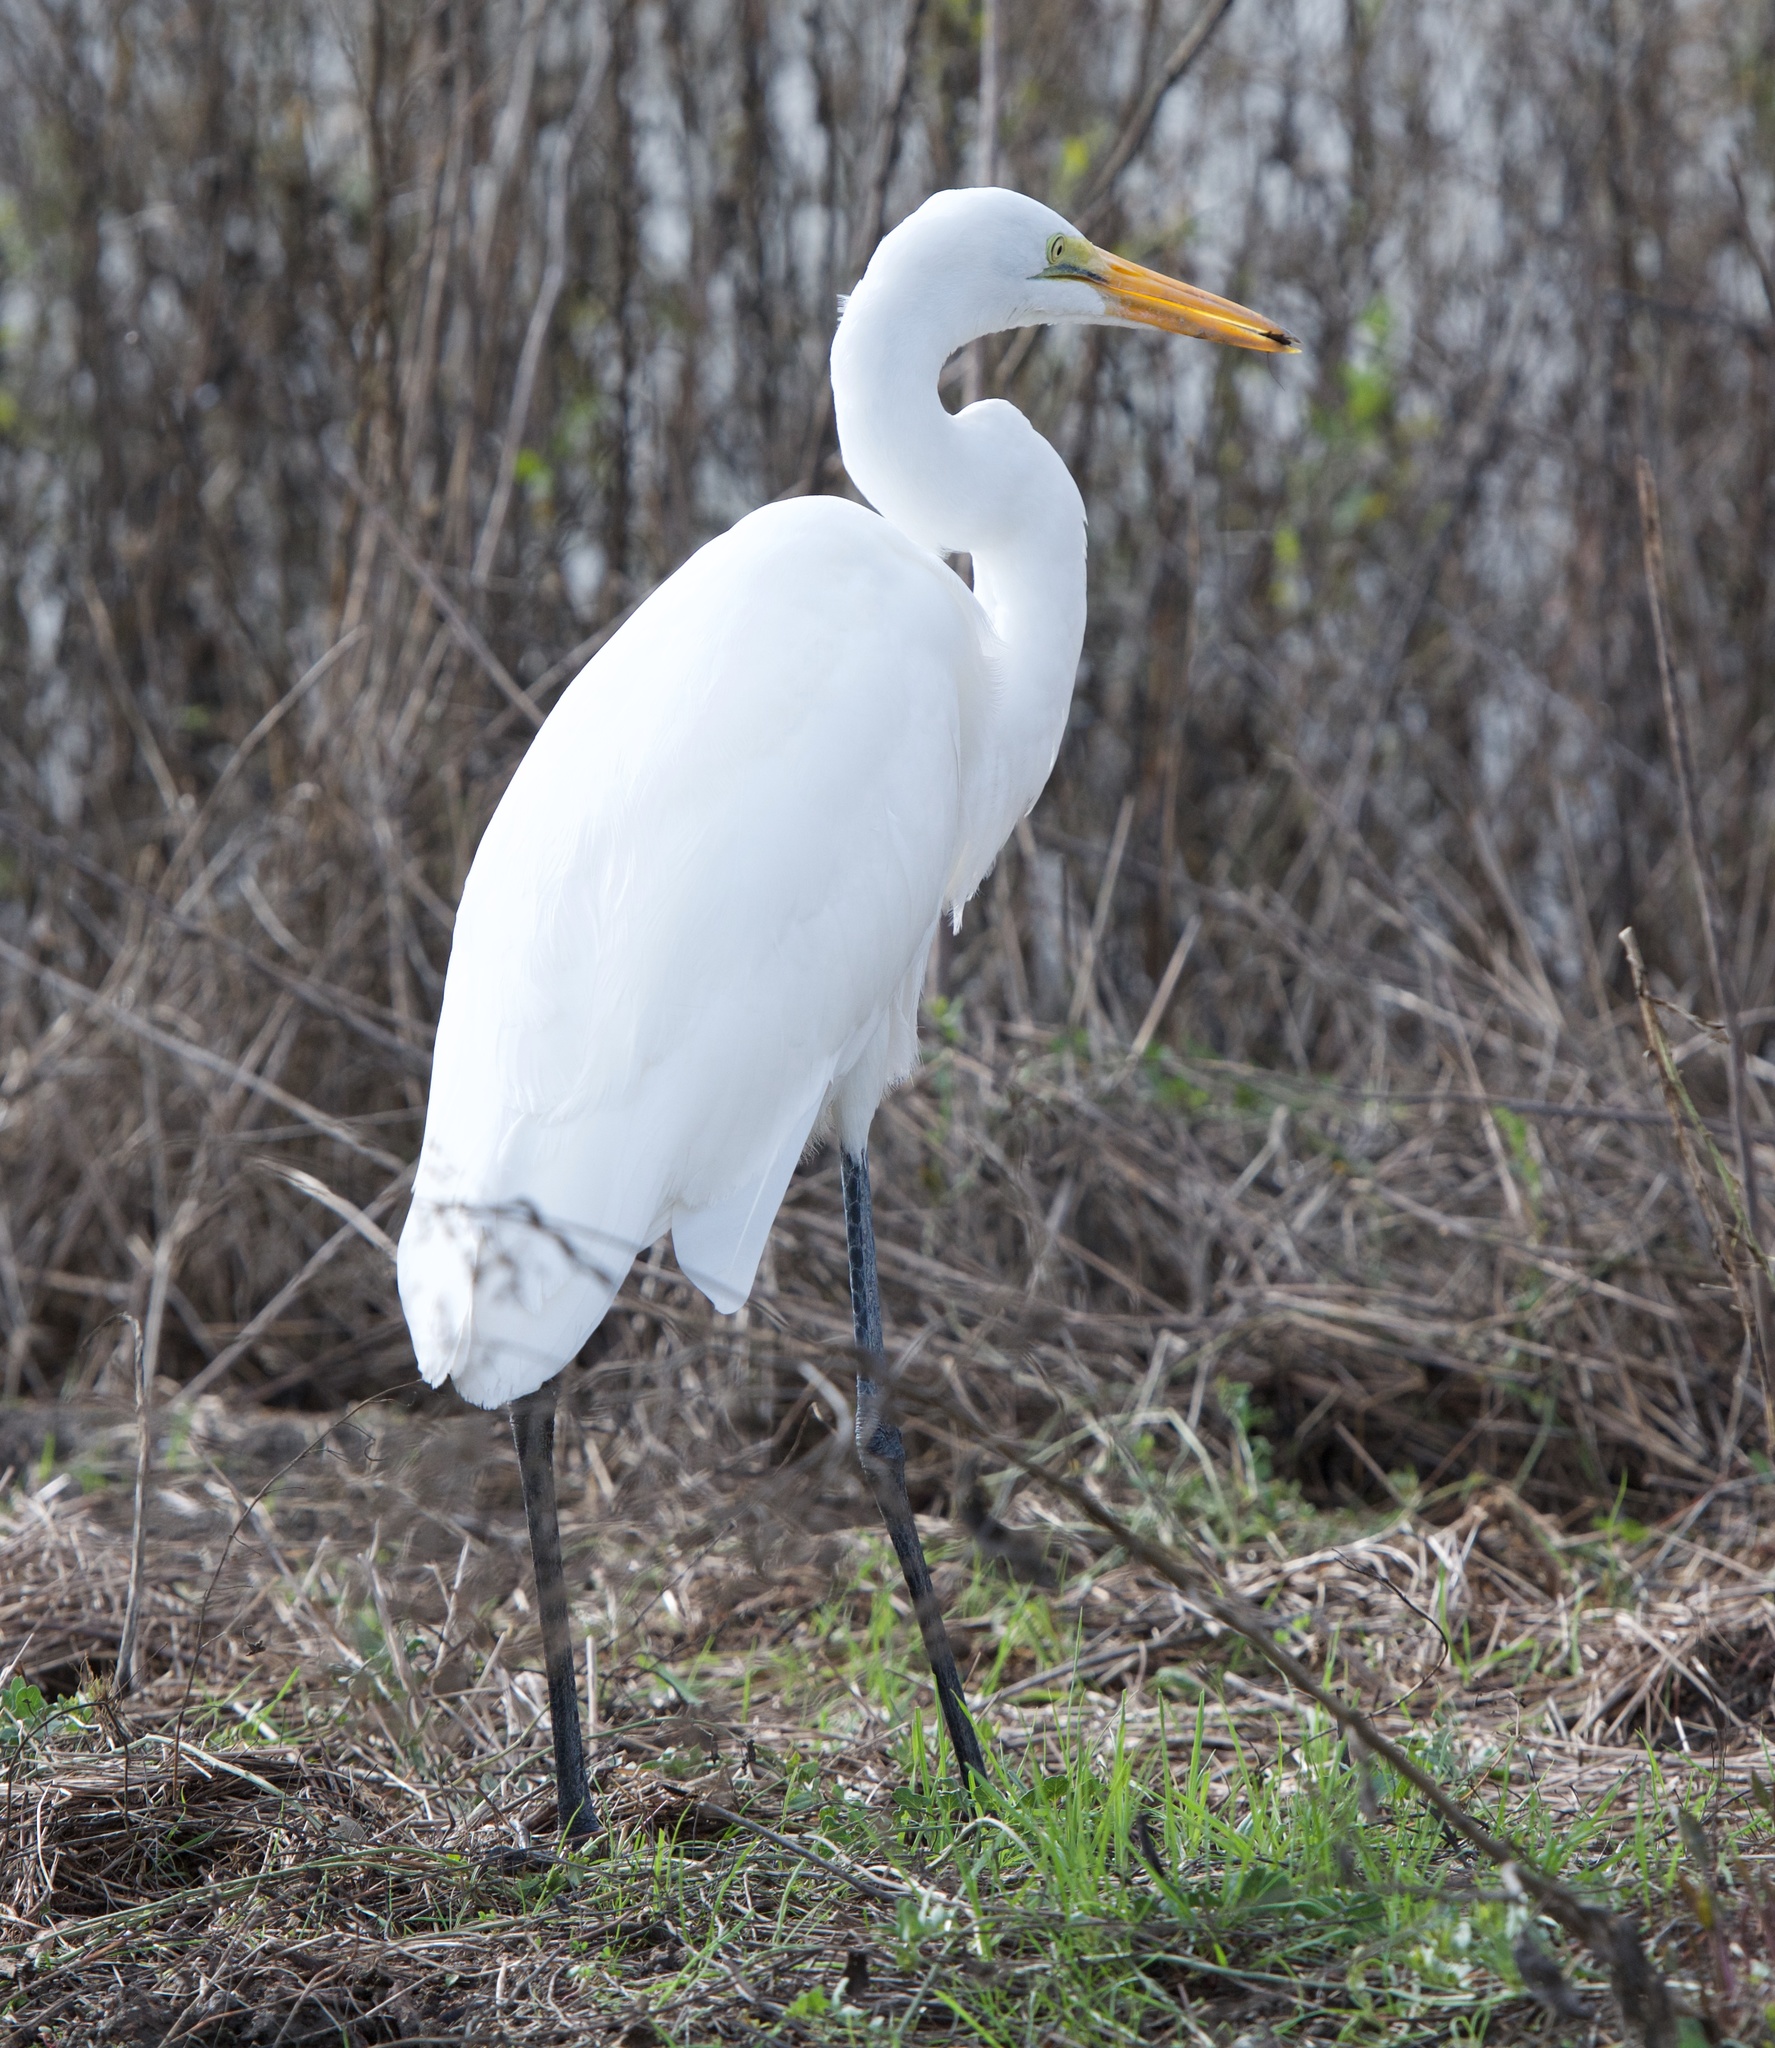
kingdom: Animalia
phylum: Chordata
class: Aves
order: Pelecaniformes
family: Ardeidae
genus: Ardea
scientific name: Ardea alba
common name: Great egret
